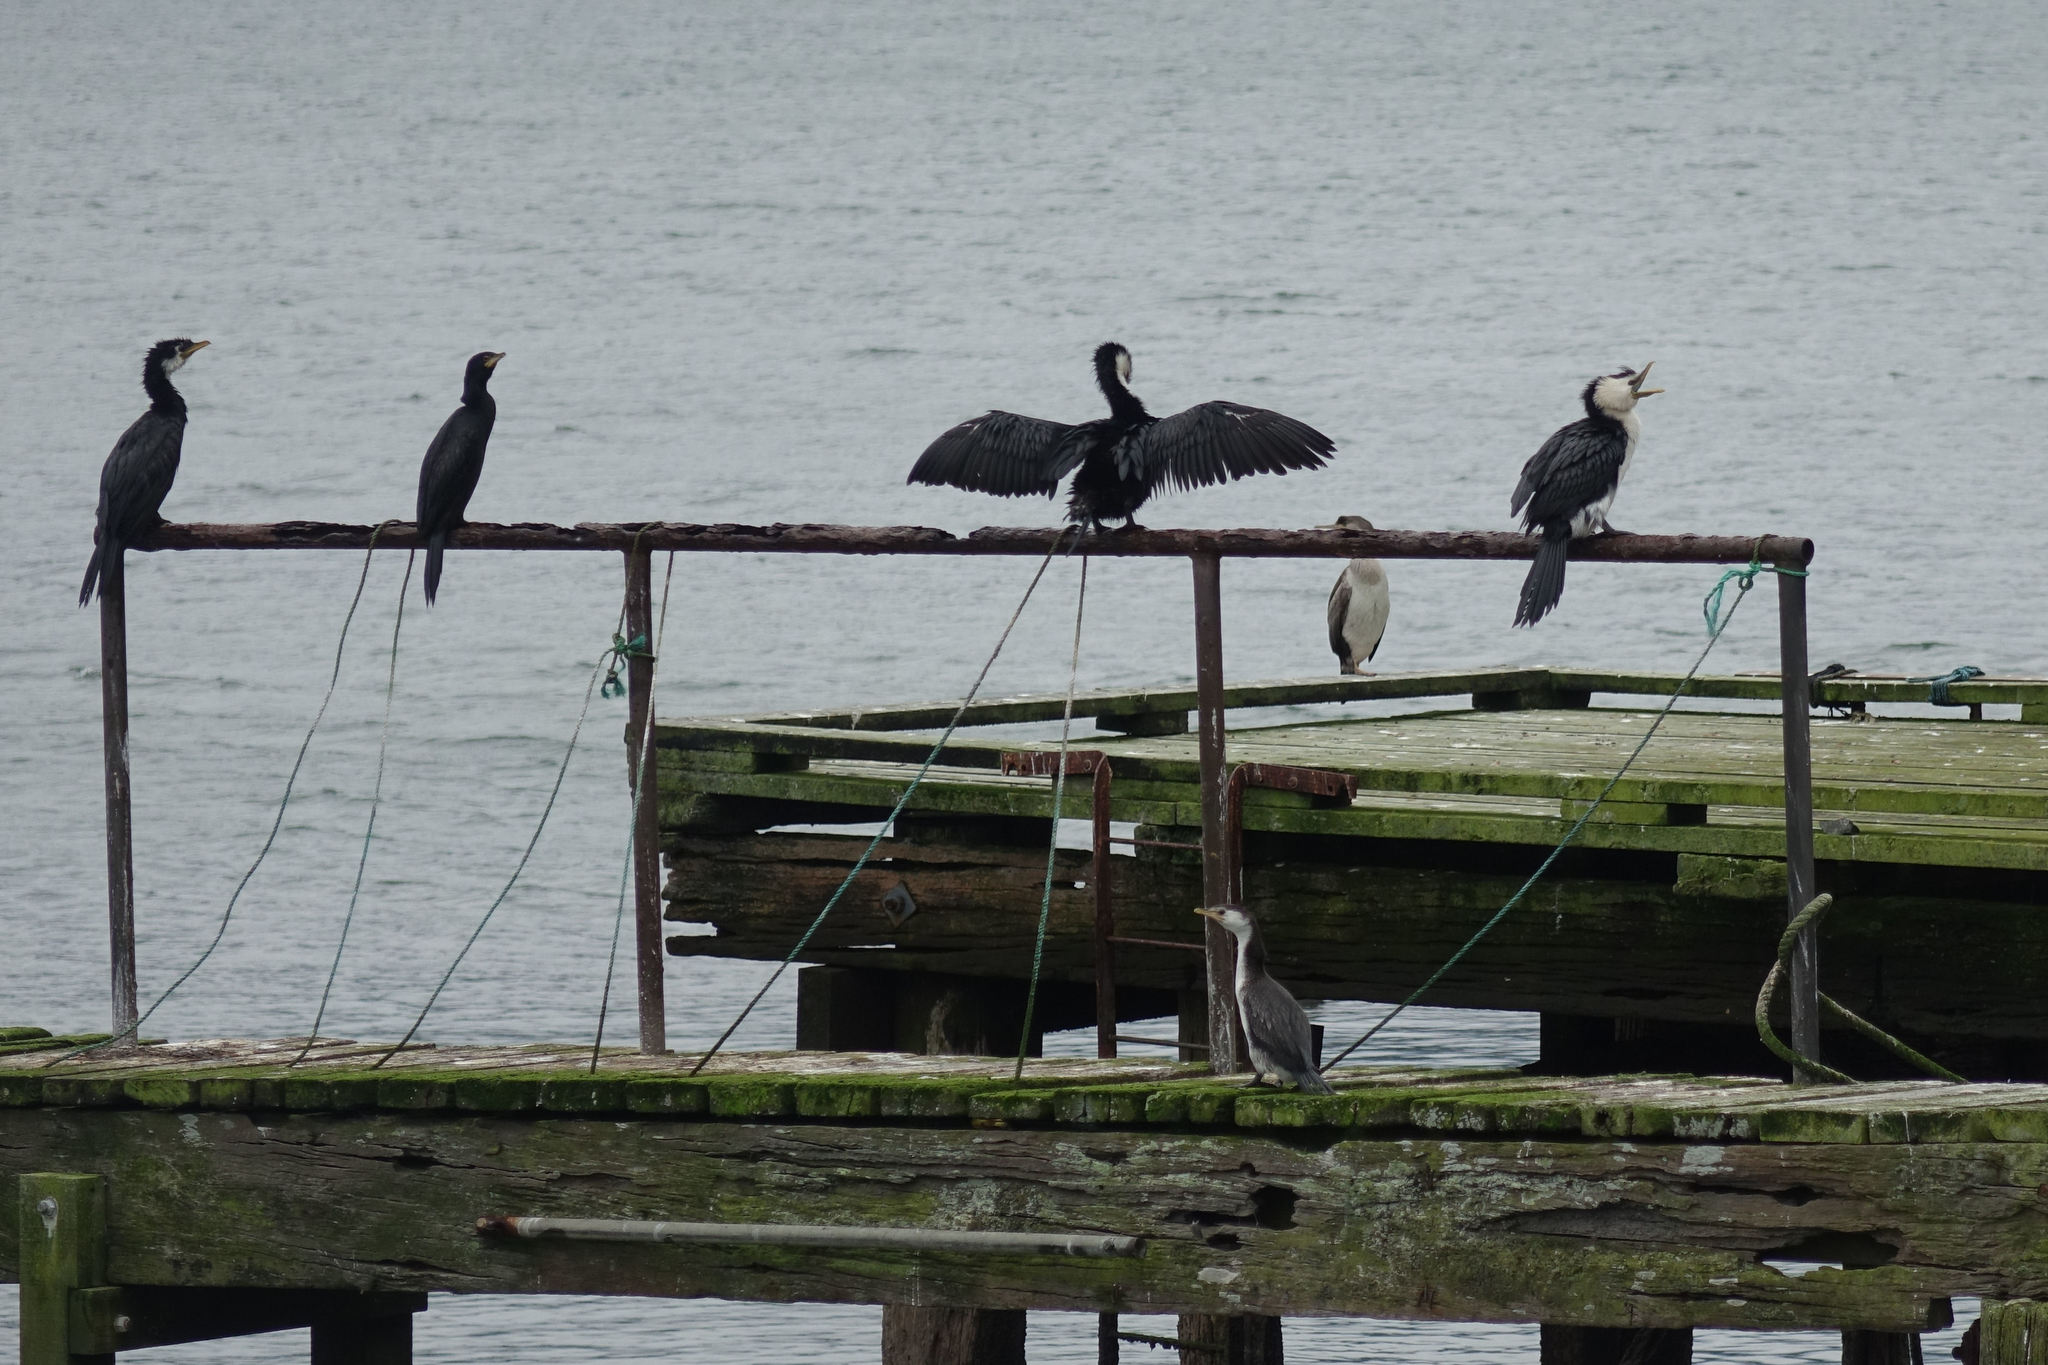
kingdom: Animalia
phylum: Chordata
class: Aves
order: Suliformes
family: Phalacrocoracidae
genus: Microcarbo
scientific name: Microcarbo melanoleucos
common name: Little pied cormorant
